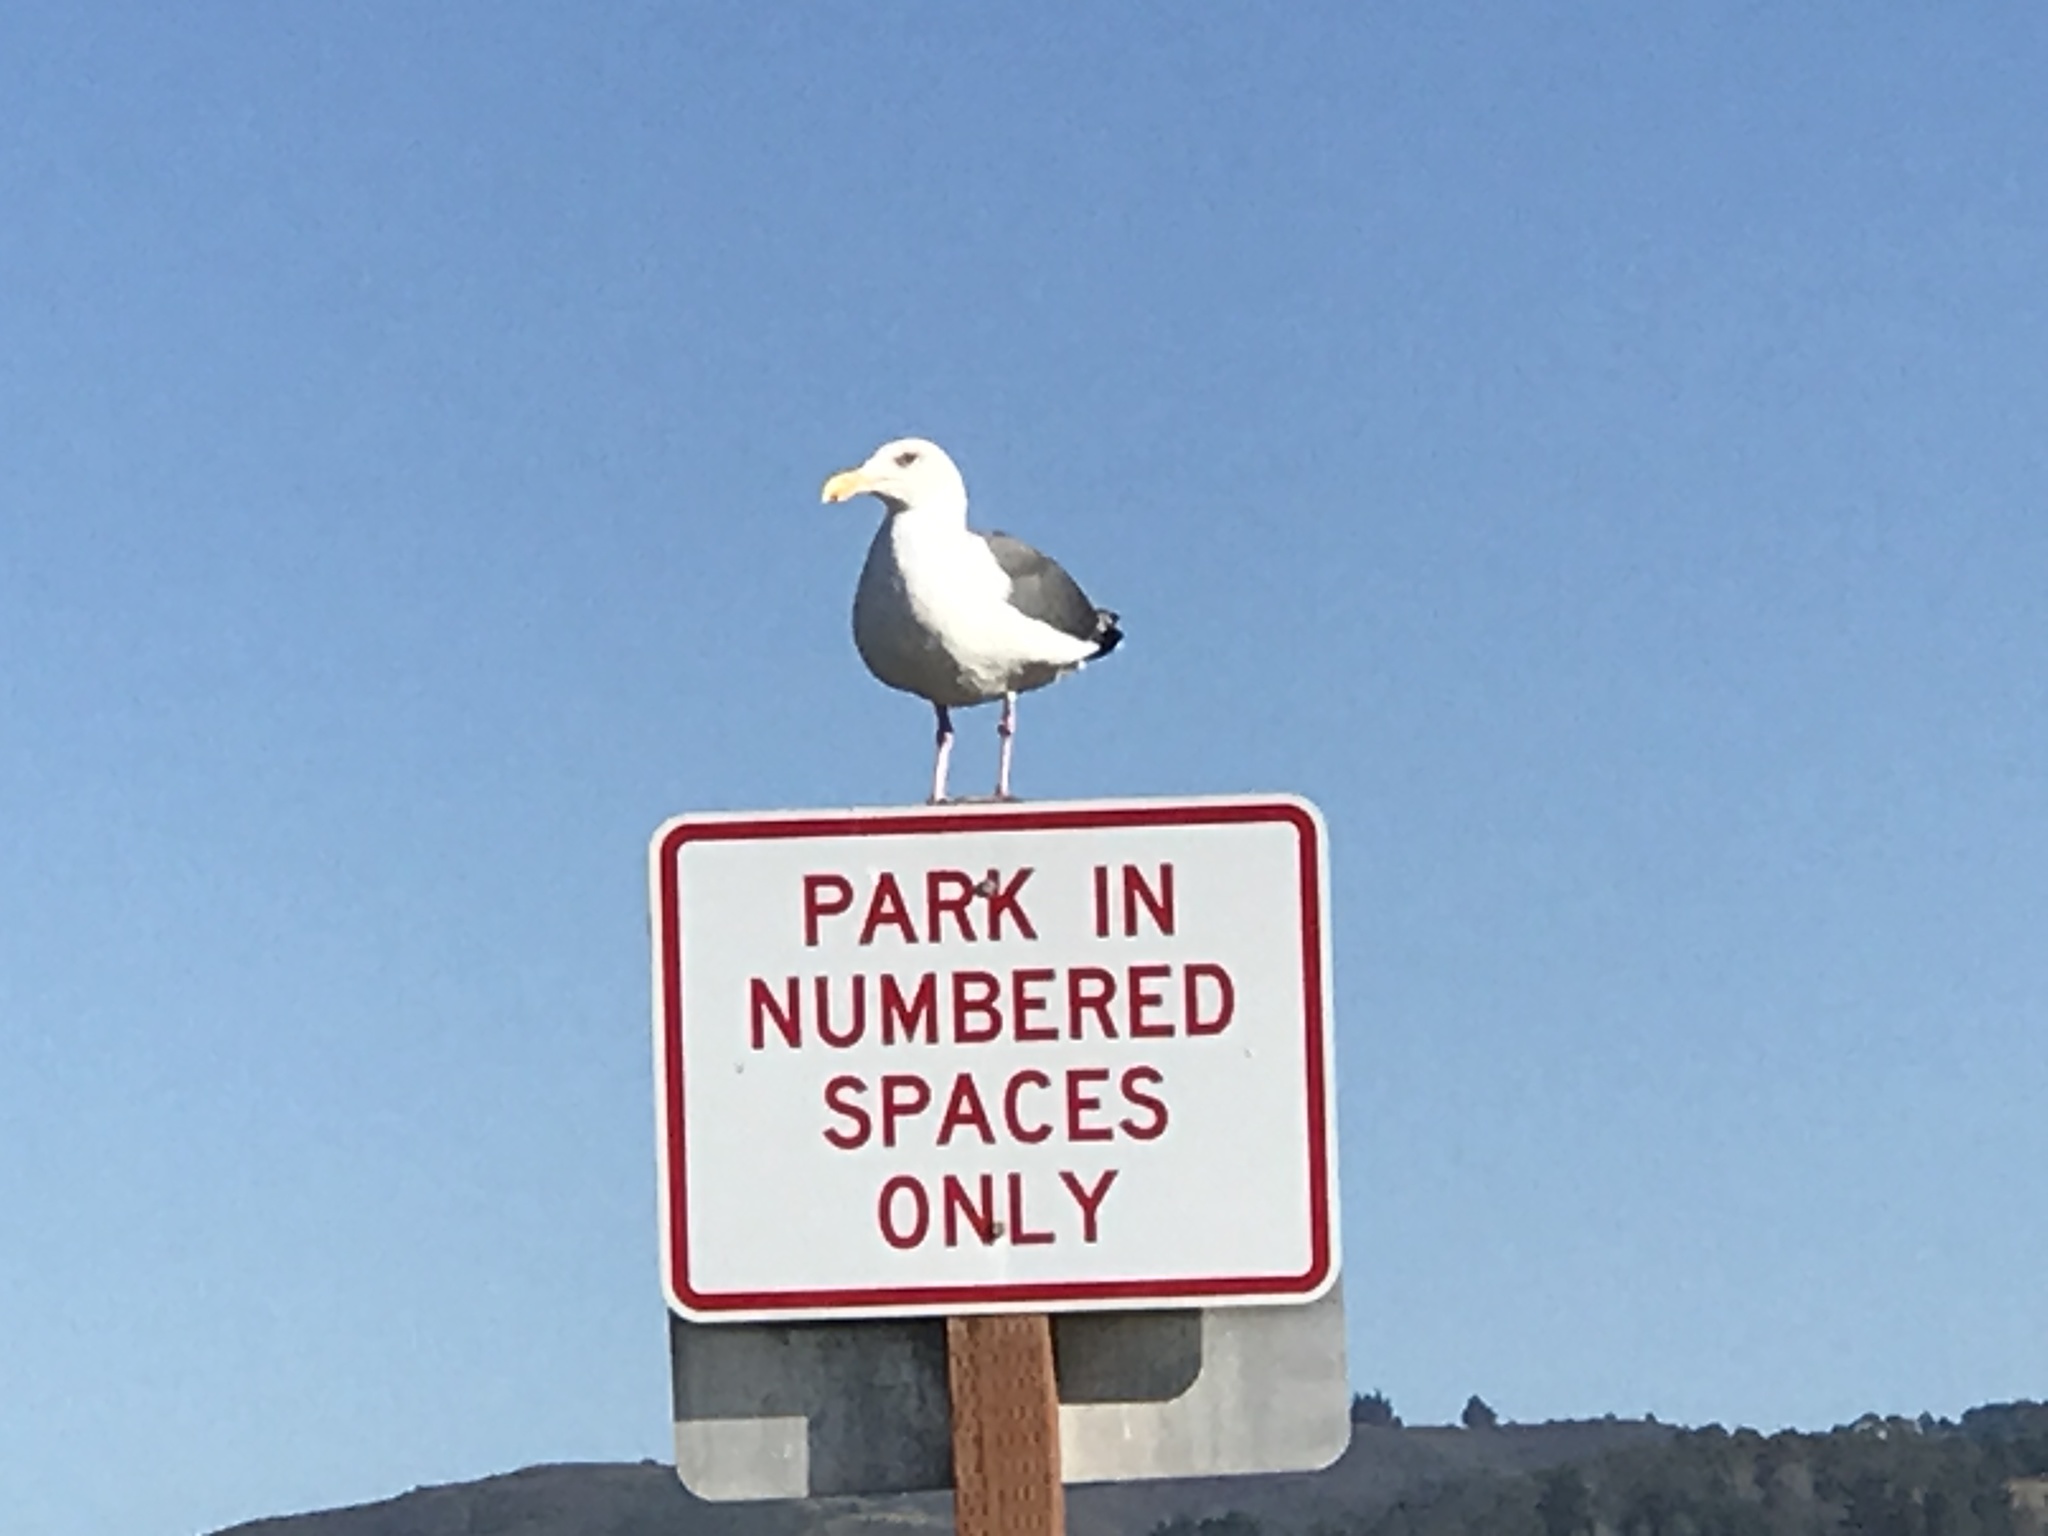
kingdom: Animalia
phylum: Chordata
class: Aves
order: Charadriiformes
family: Laridae
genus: Larus
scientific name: Larus occidentalis
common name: Western gull
